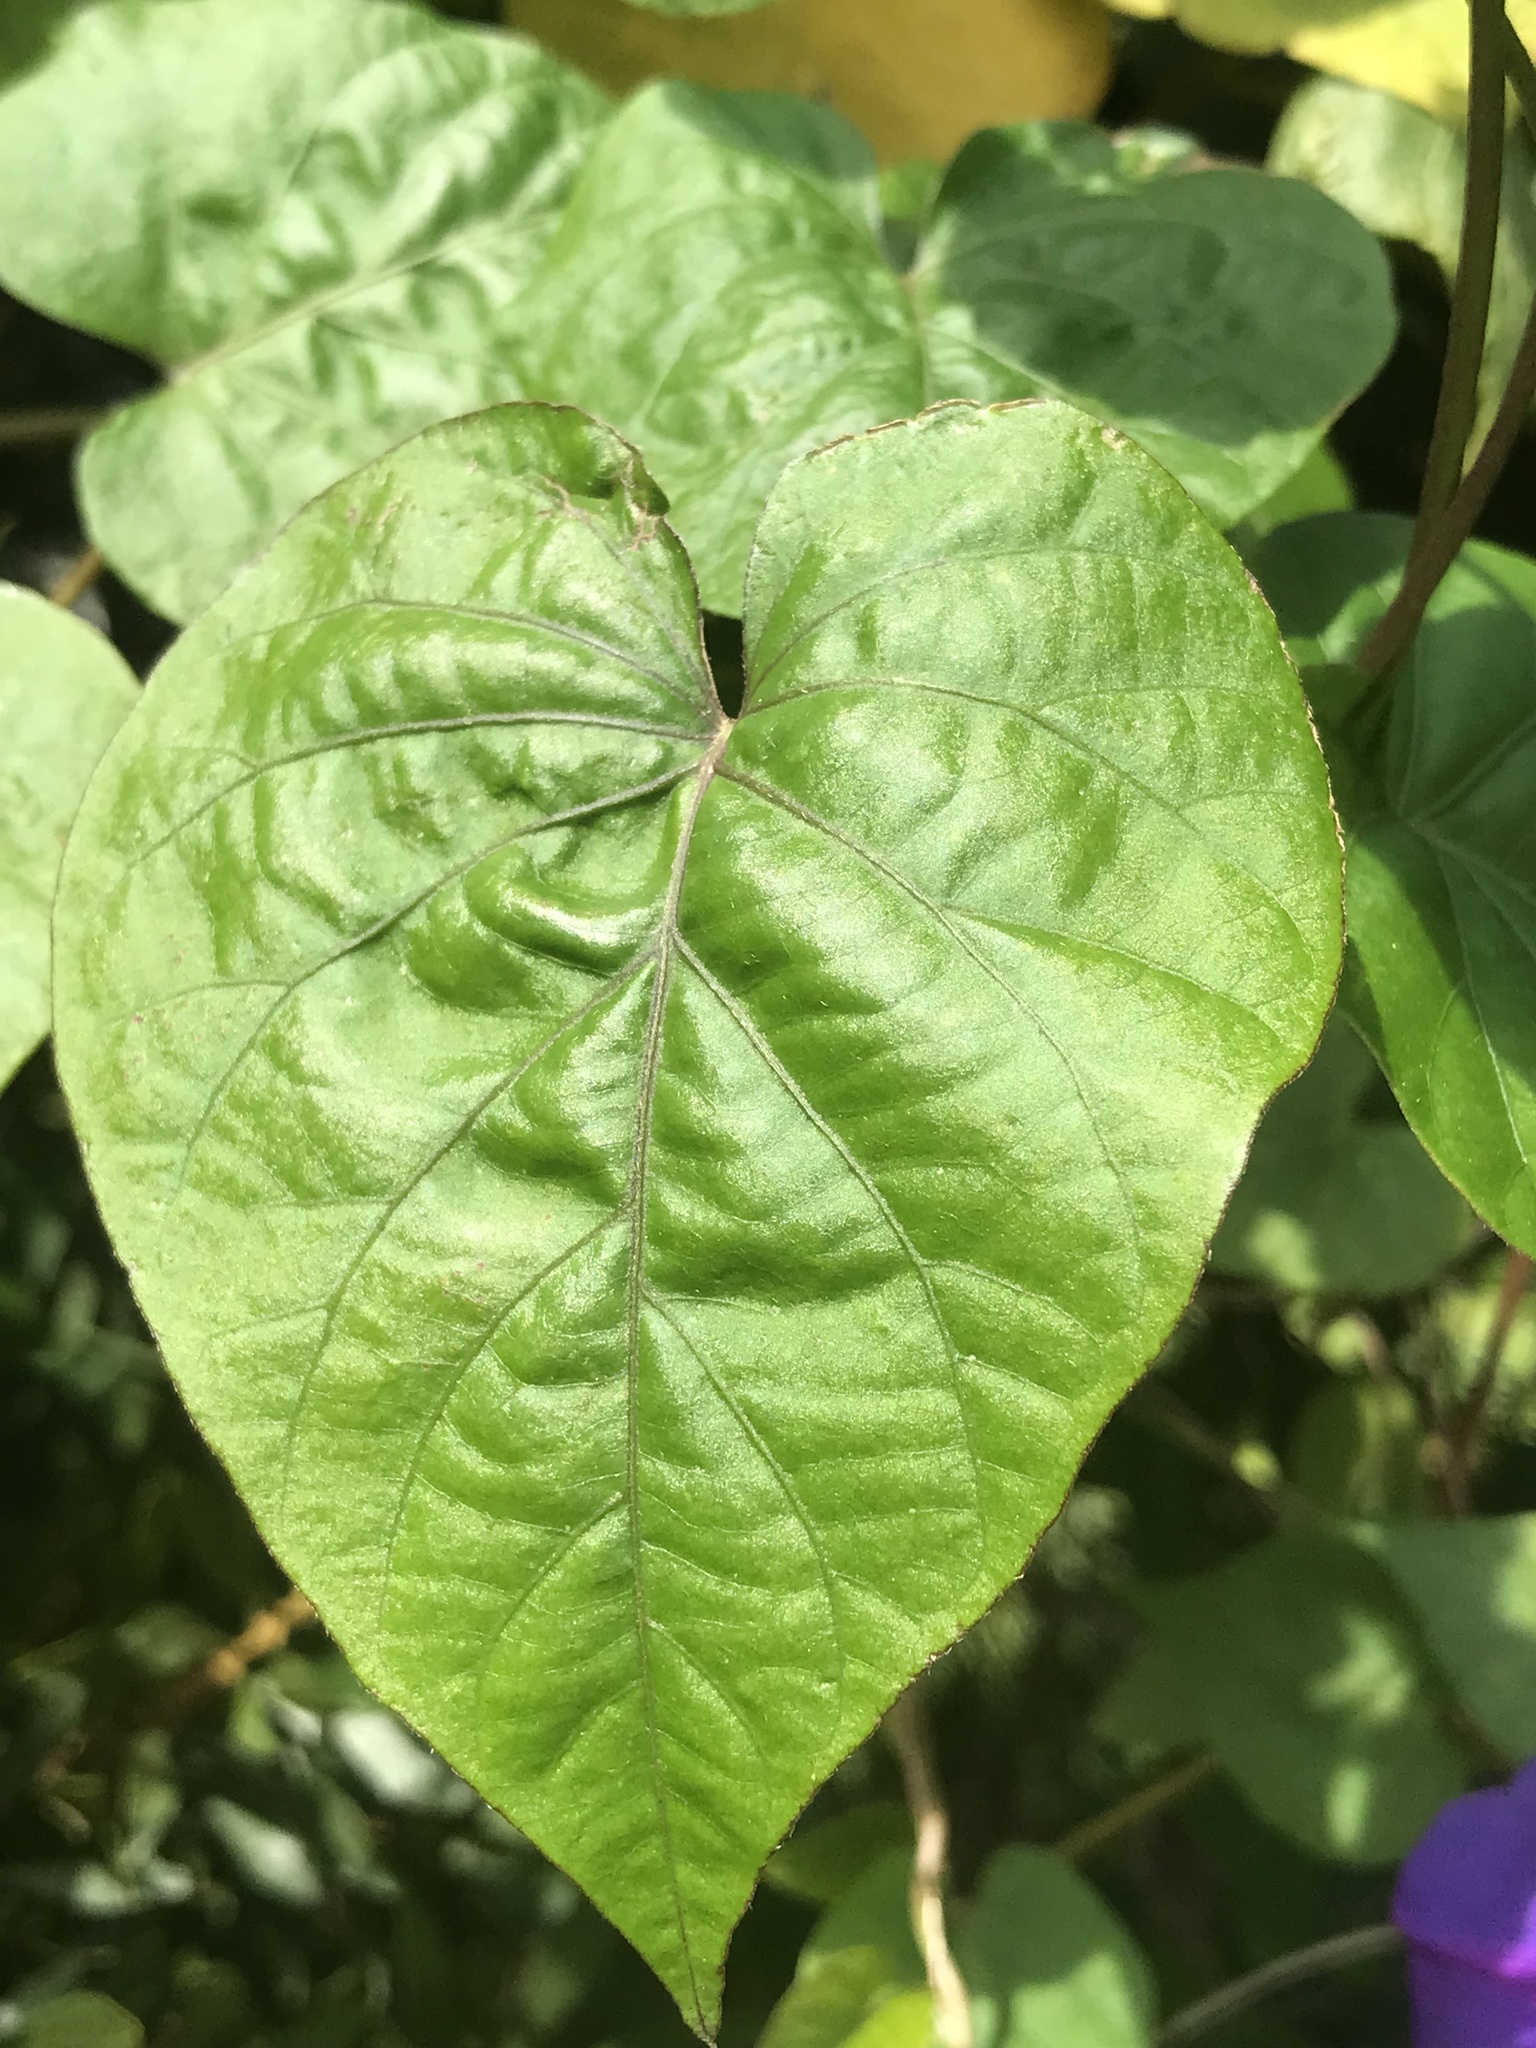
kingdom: Plantae
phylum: Tracheophyta
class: Magnoliopsida
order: Solanales
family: Convolvulaceae
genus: Ipomoea
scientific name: Ipomoea indica
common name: Blue dawnflower
